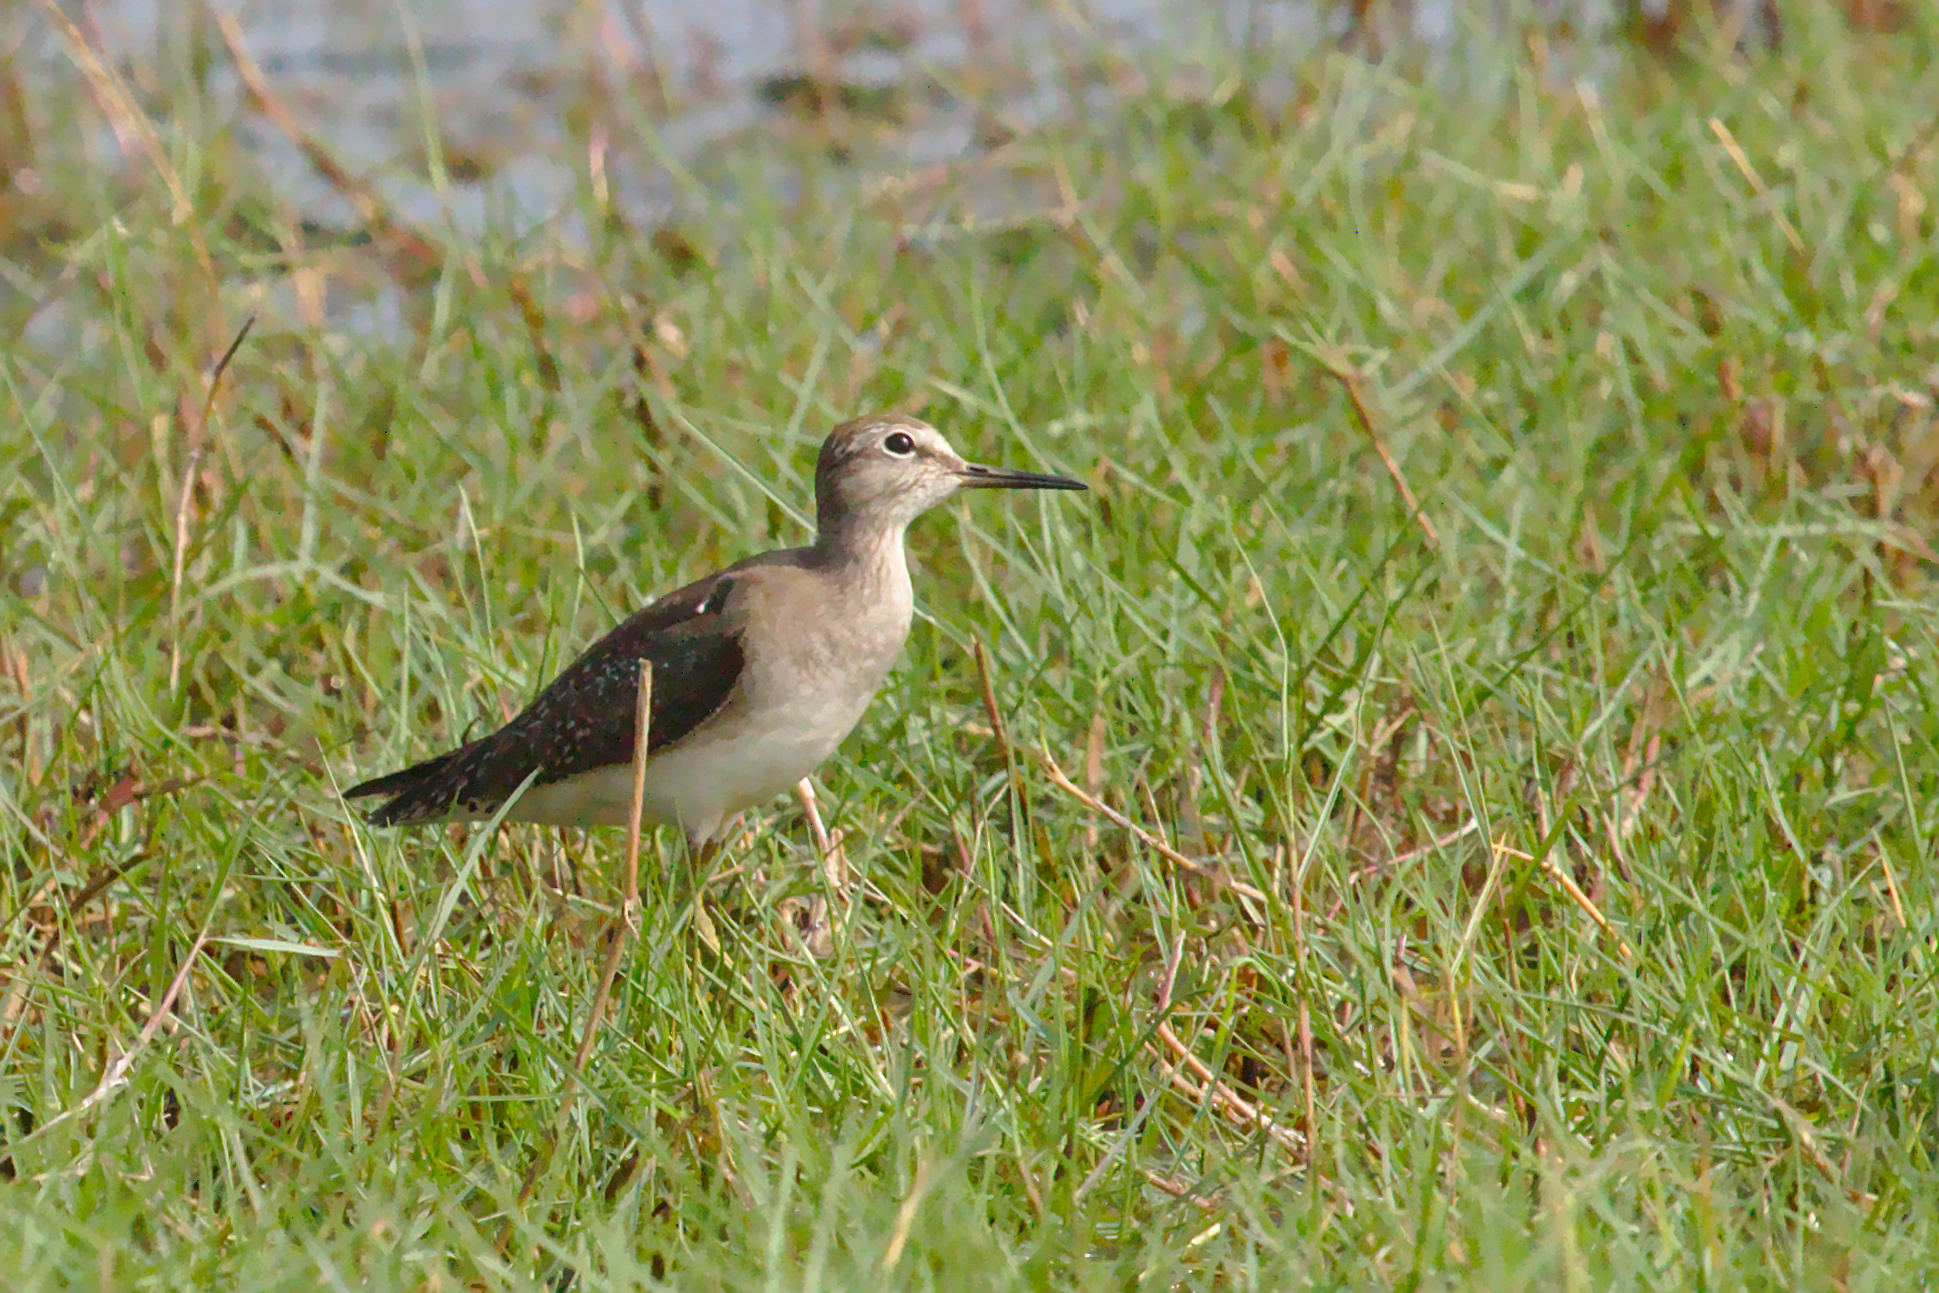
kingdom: Animalia
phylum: Chordata
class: Aves
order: Charadriiformes
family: Scolopacidae
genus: Tringa
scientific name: Tringa glareola
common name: Wood sandpiper
